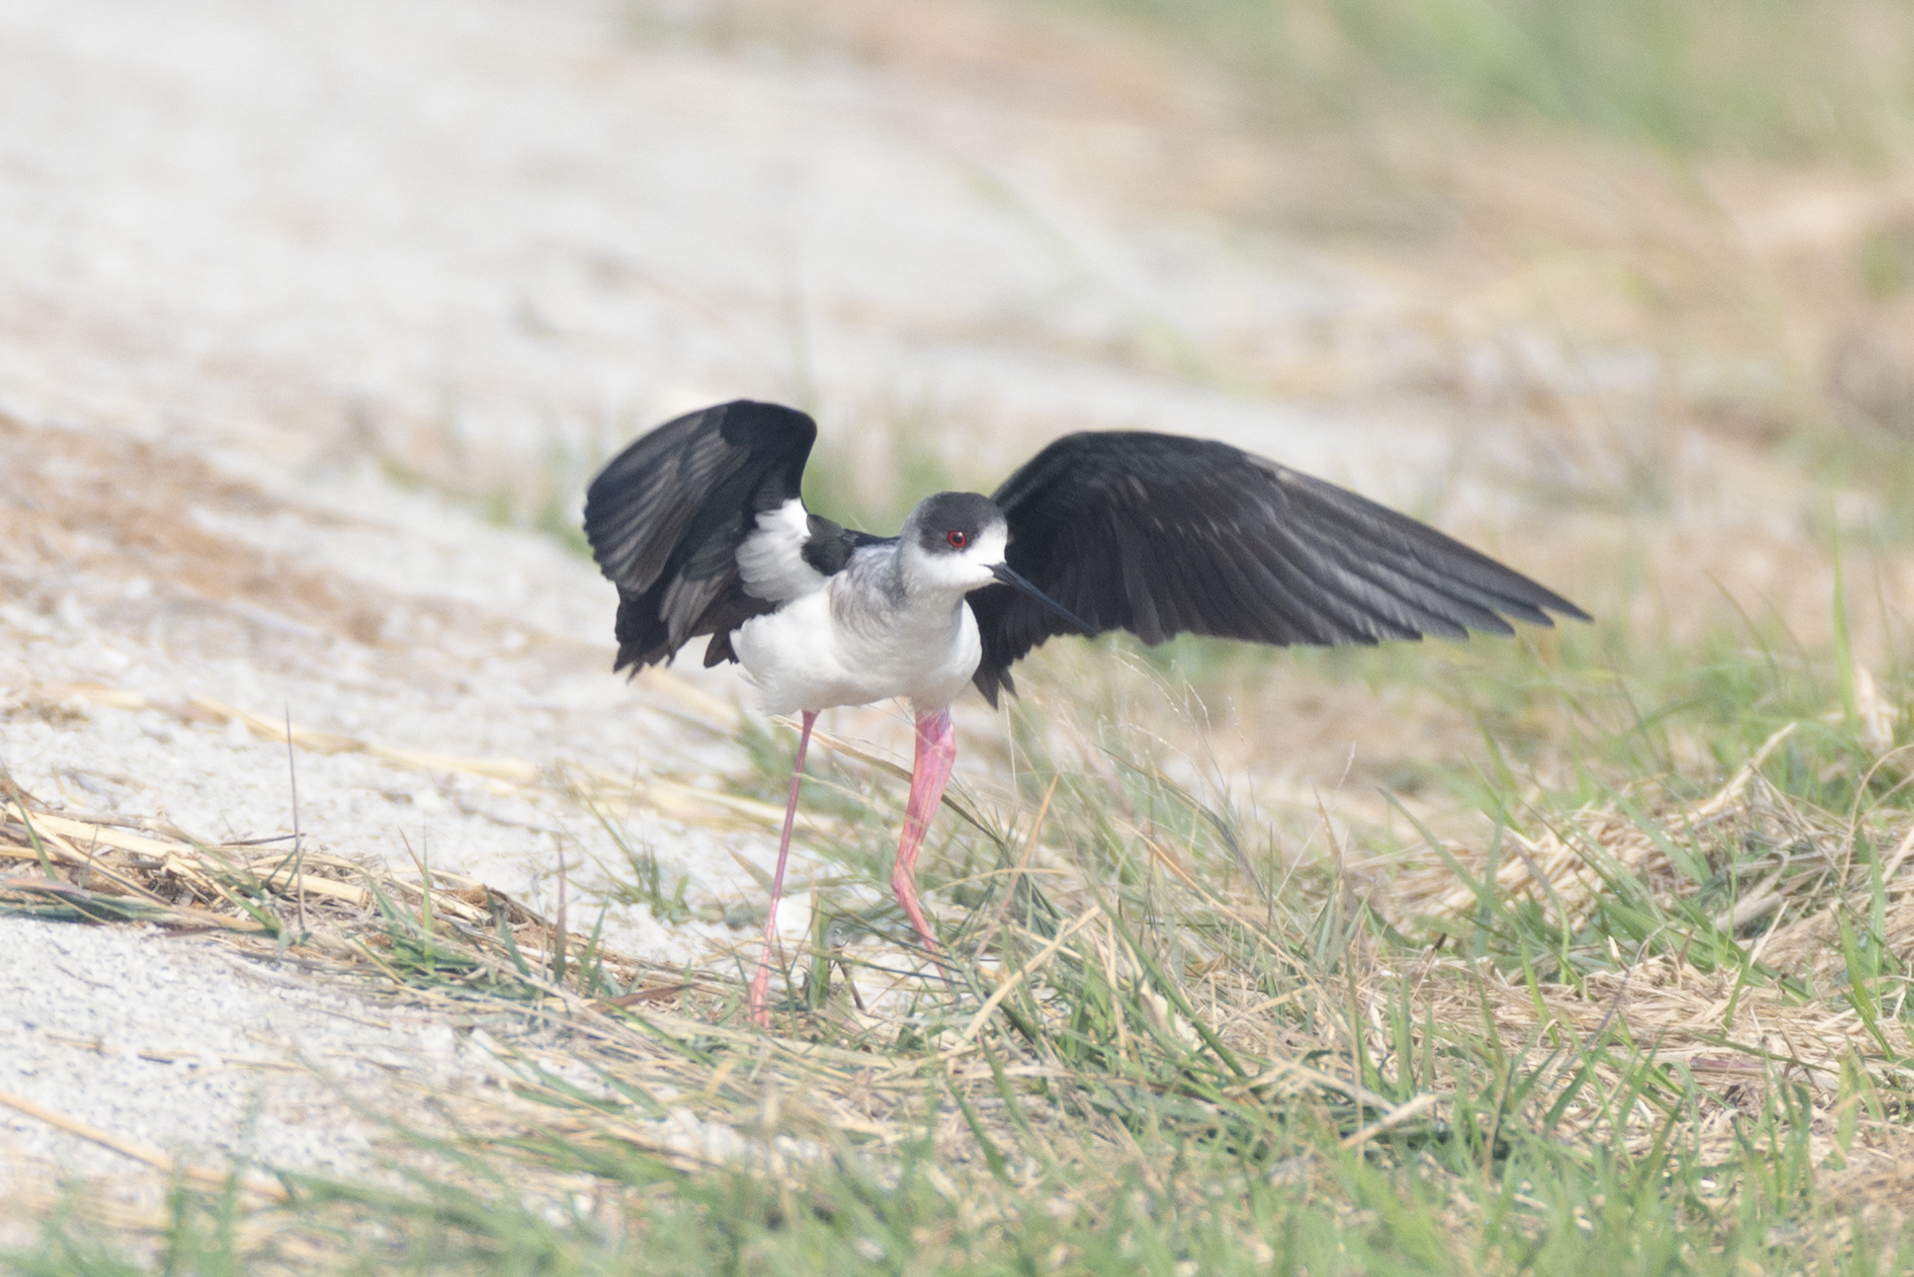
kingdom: Animalia
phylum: Chordata
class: Aves
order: Charadriiformes
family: Recurvirostridae
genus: Himantopus
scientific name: Himantopus himantopus
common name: Black-winged stilt
